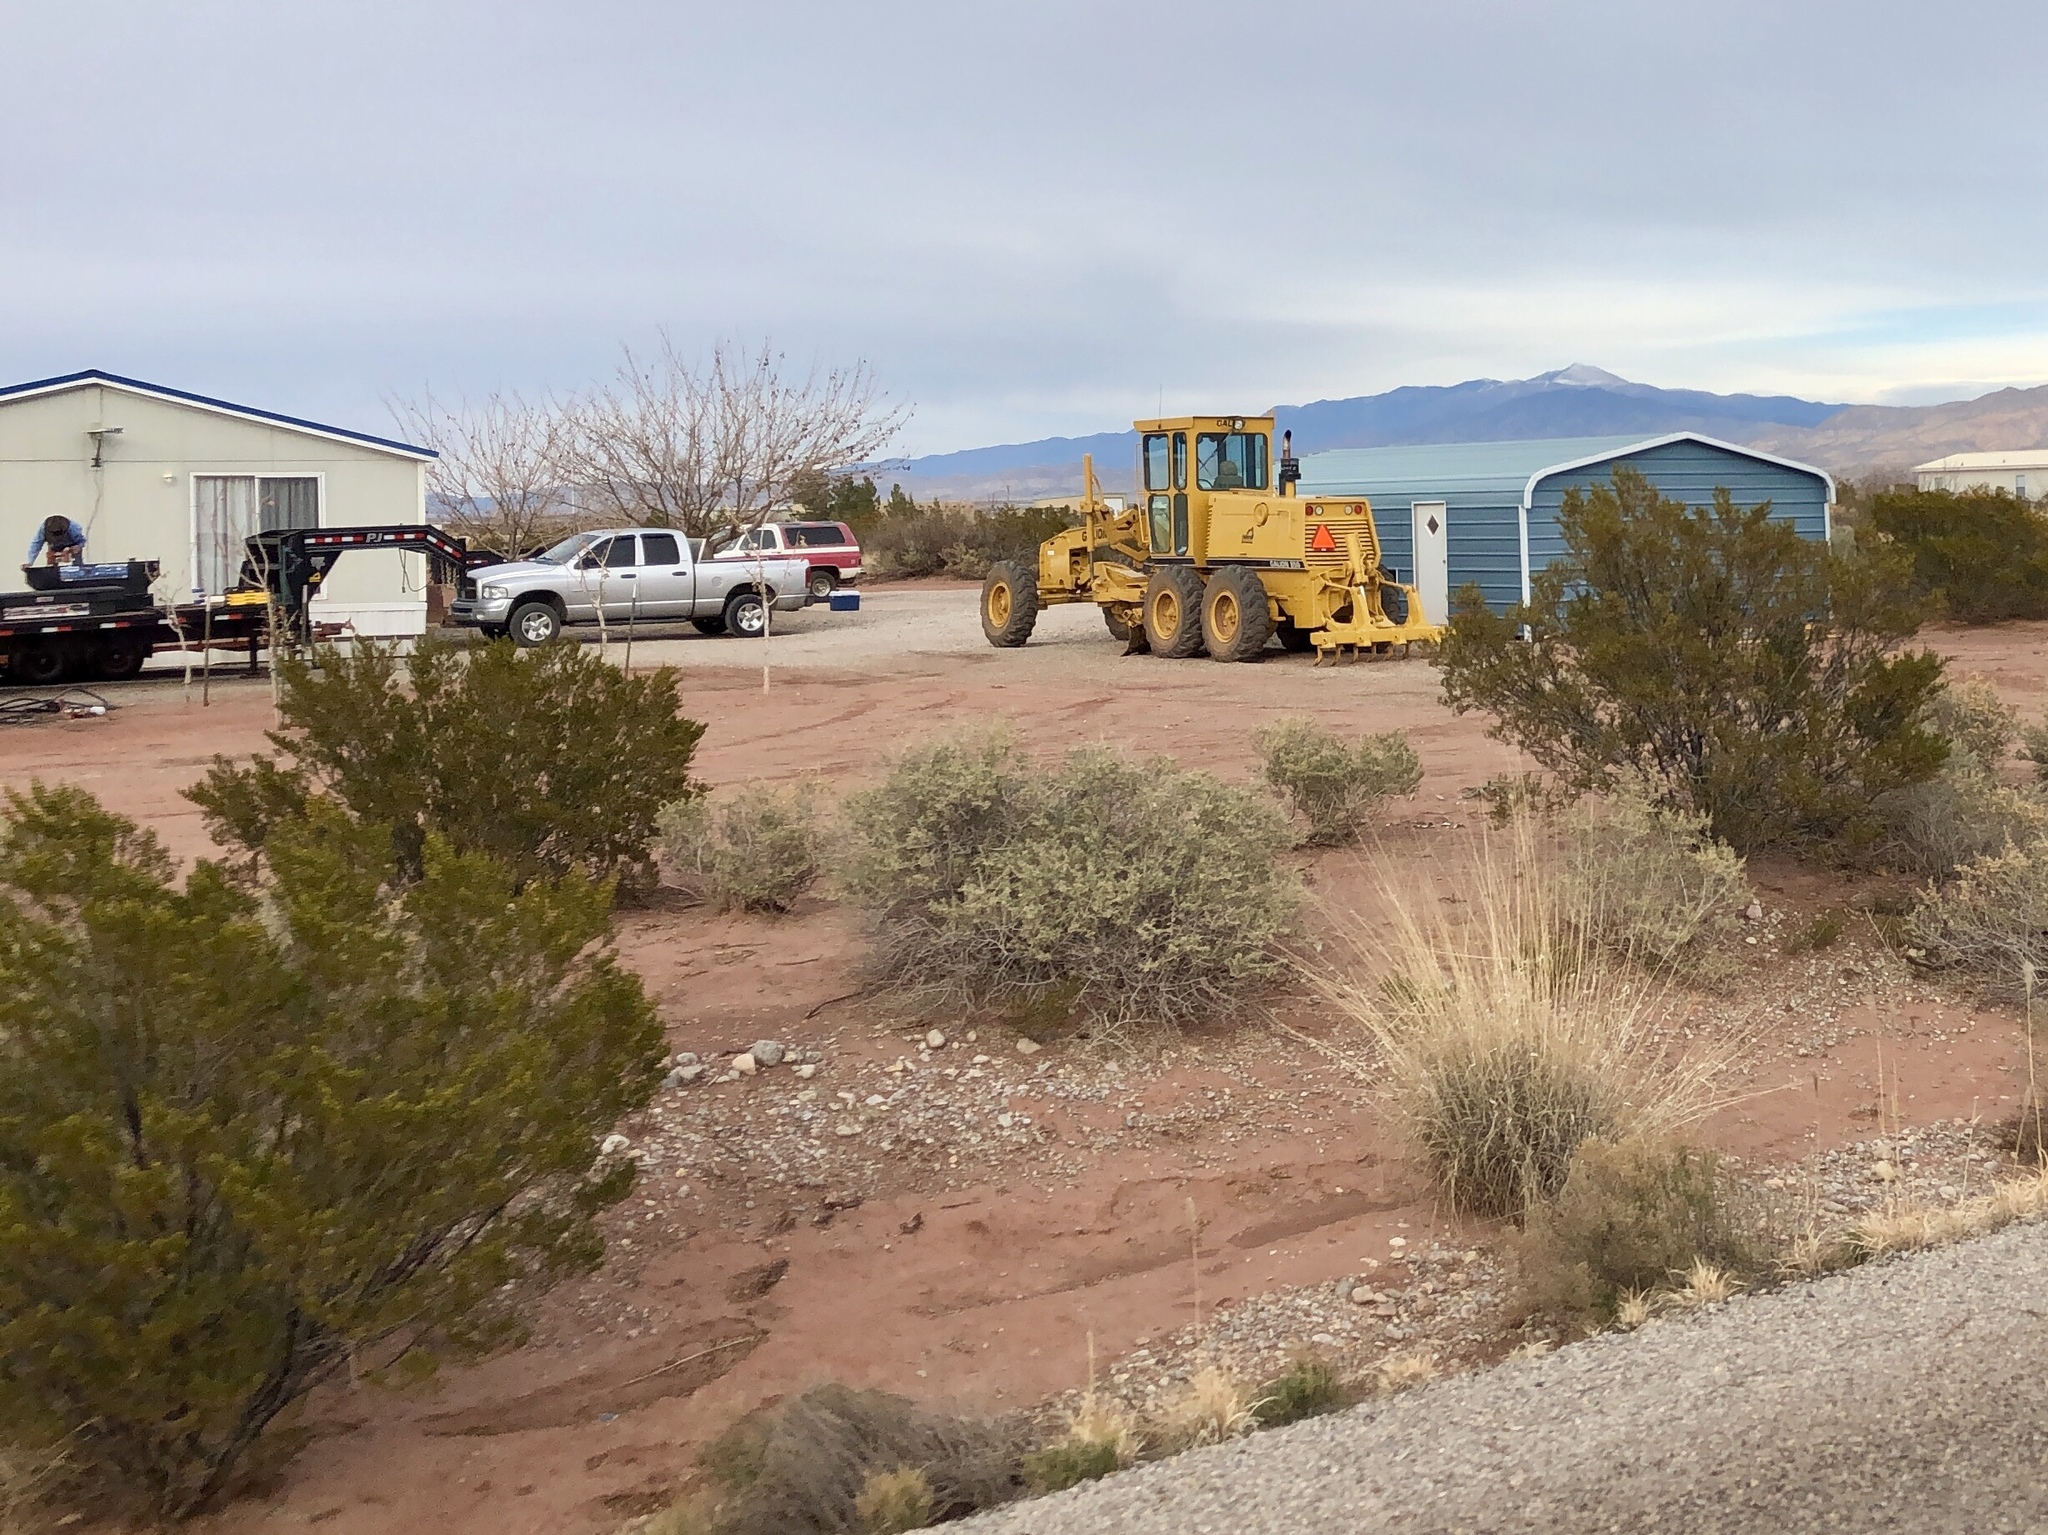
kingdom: Plantae
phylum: Tracheophyta
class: Magnoliopsida
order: Zygophyllales
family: Zygophyllaceae
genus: Larrea
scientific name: Larrea tridentata
